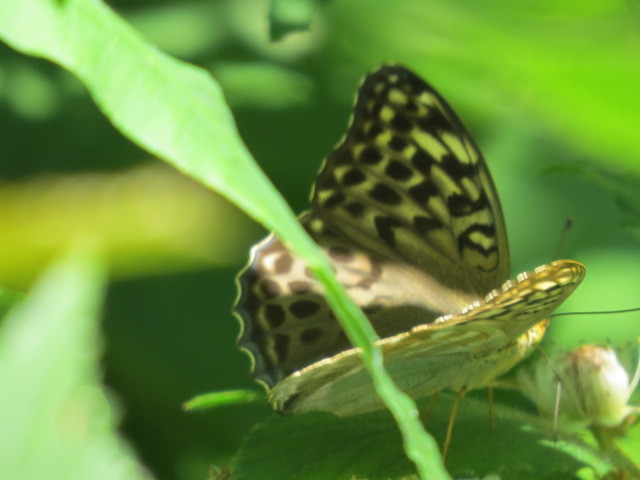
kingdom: Animalia
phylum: Arthropoda
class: Insecta
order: Lepidoptera
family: Nymphalidae
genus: Argynnis
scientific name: Argynnis paphia
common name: Silver-washed fritillary
